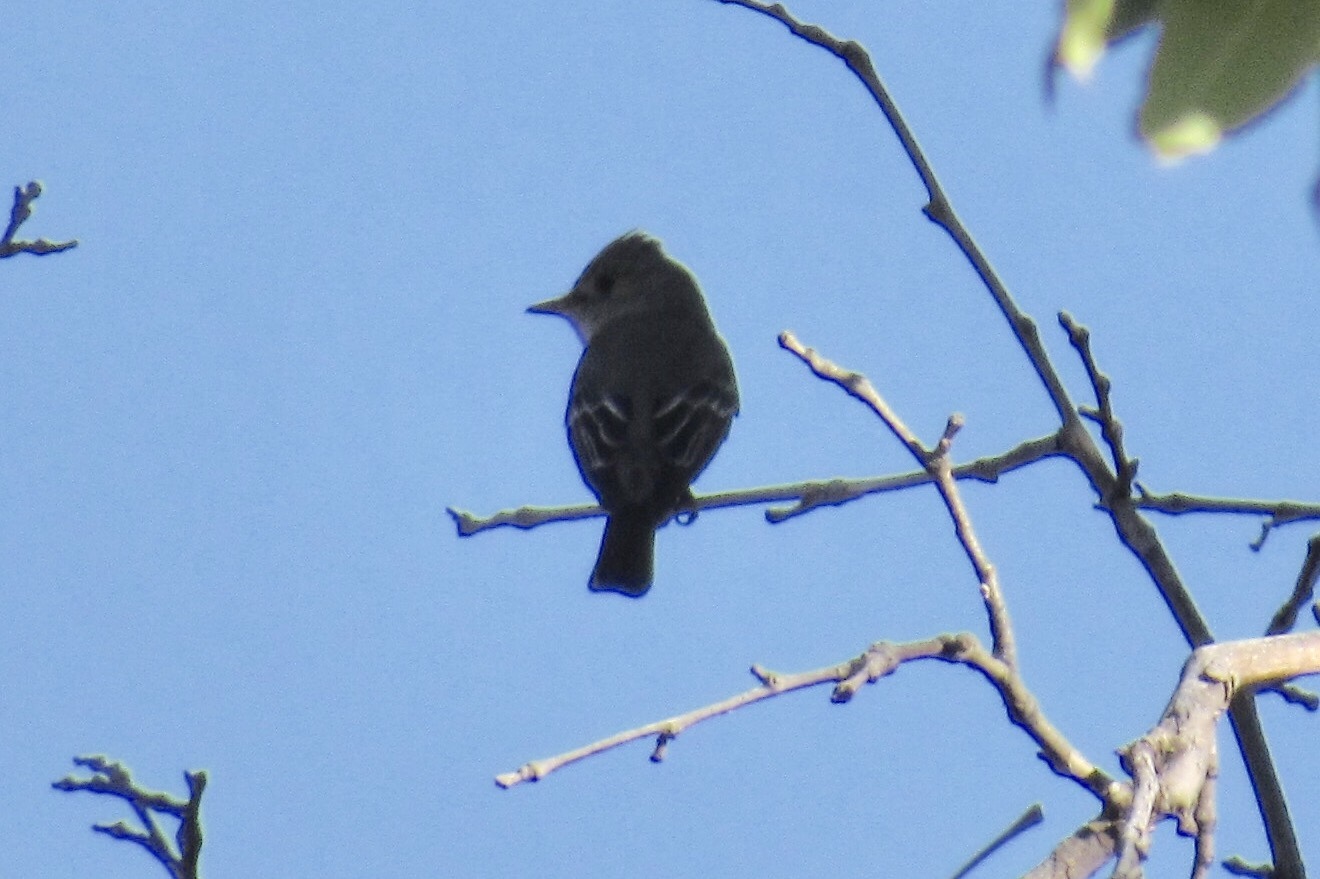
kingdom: Animalia
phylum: Chordata
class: Aves
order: Passeriformes
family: Tyrannidae
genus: Contopus
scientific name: Contopus sordidulus
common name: Western wood-pewee
